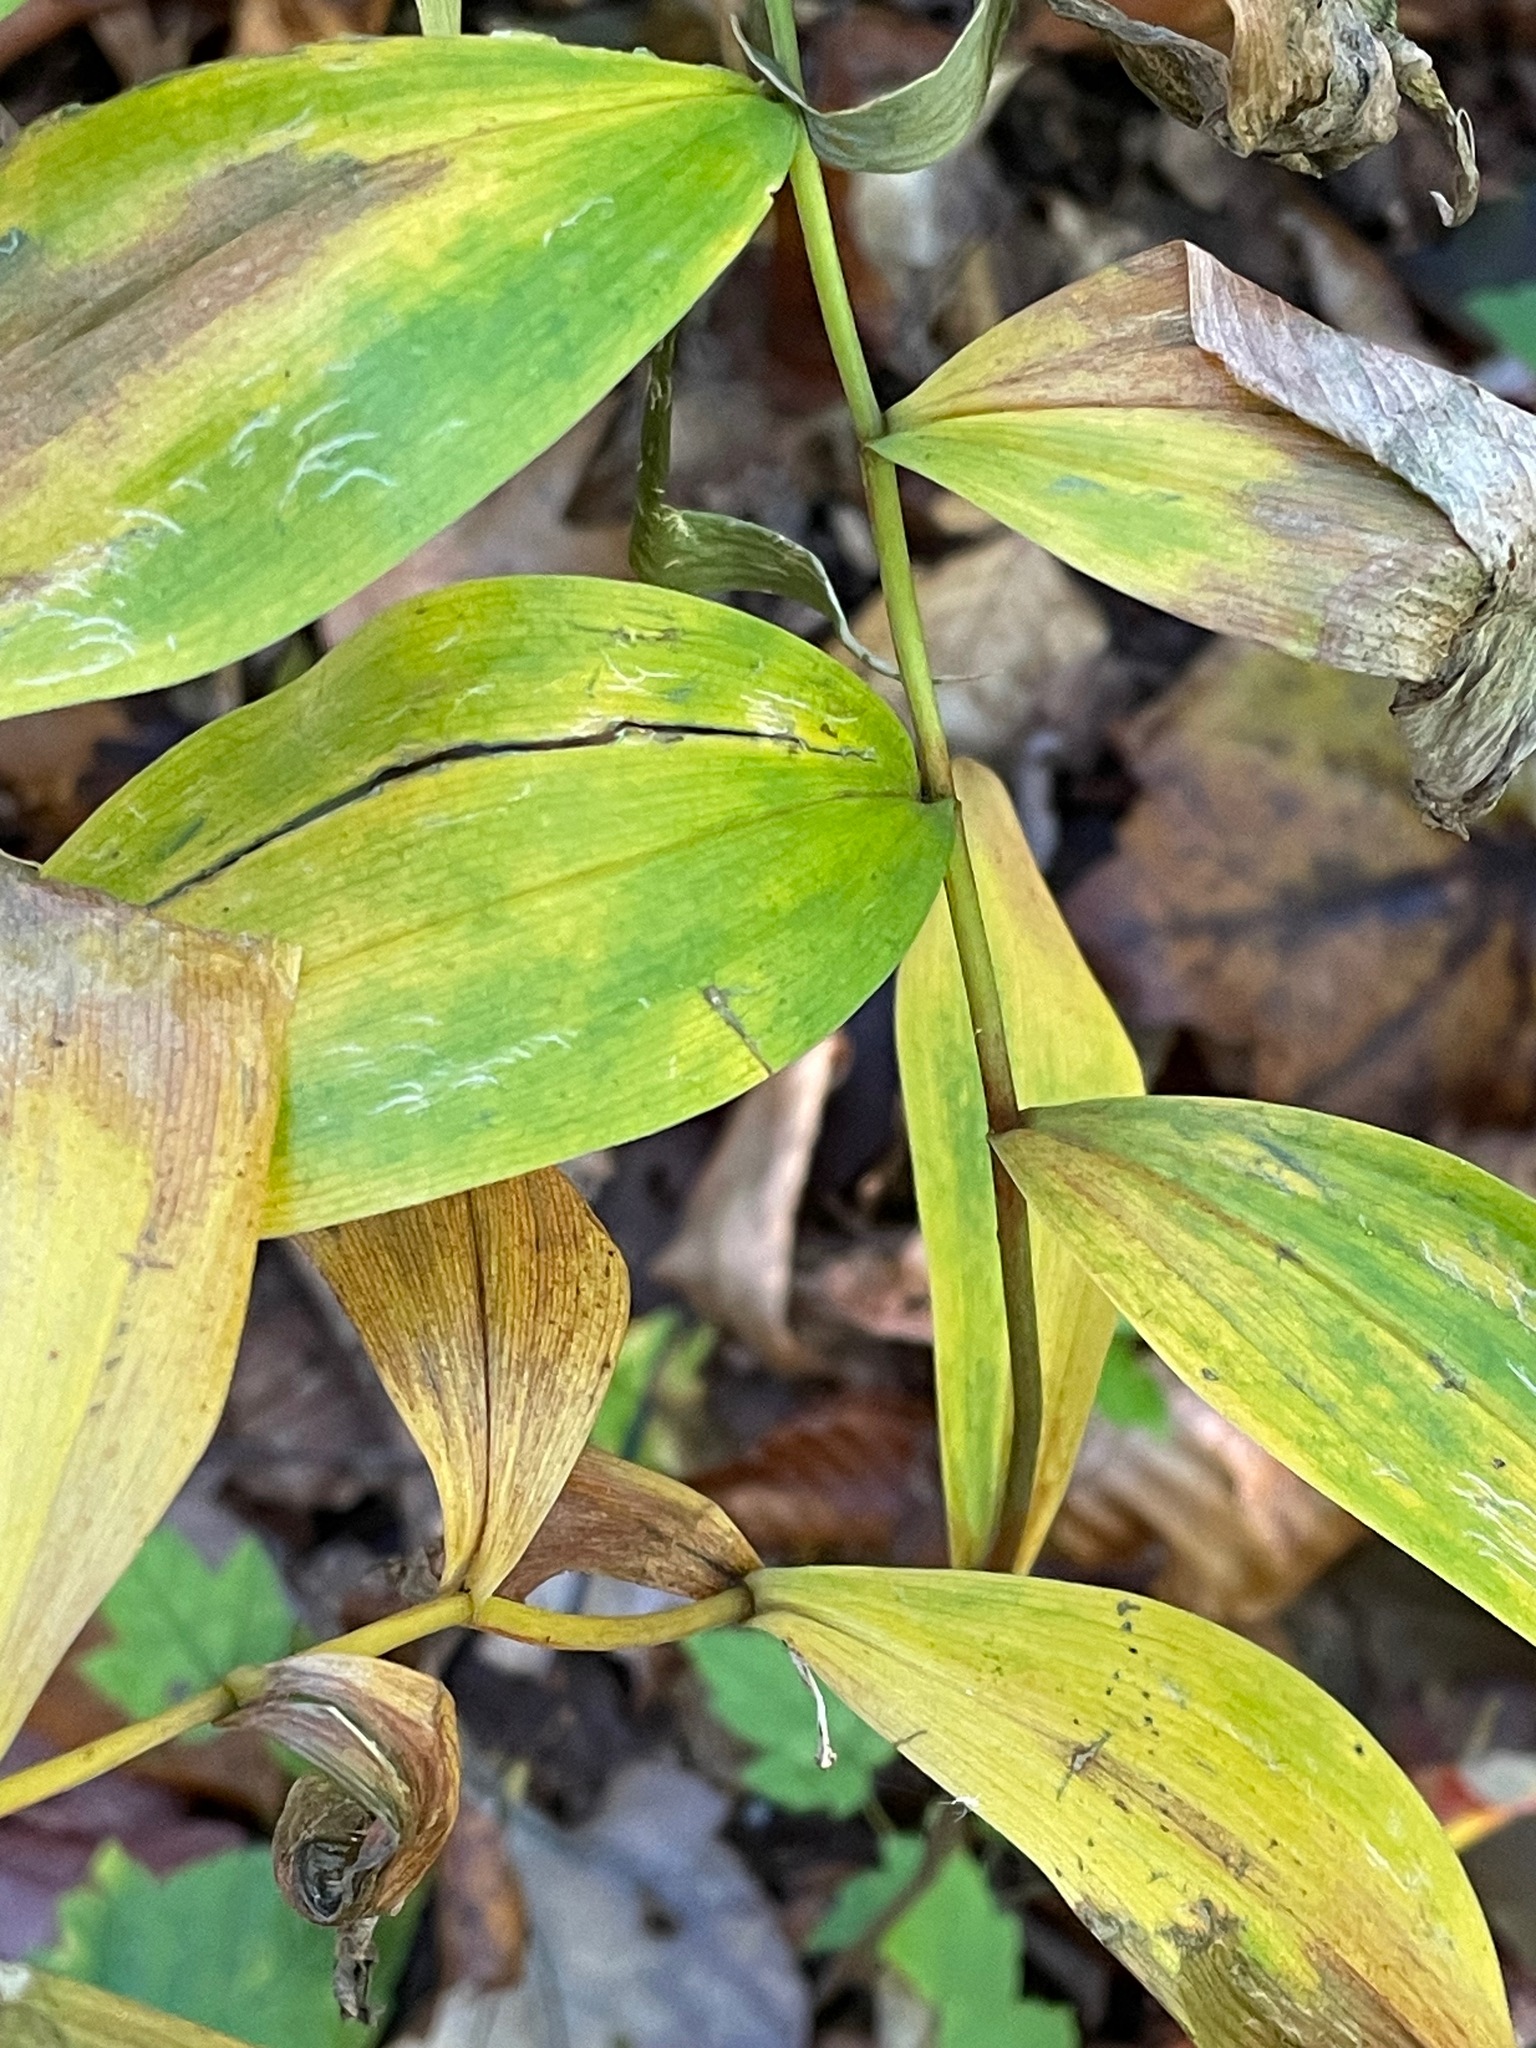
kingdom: Plantae
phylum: Tracheophyta
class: Liliopsida
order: Liliales
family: Colchicaceae
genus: Uvularia
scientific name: Uvularia sessilifolia
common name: Straw-lily
